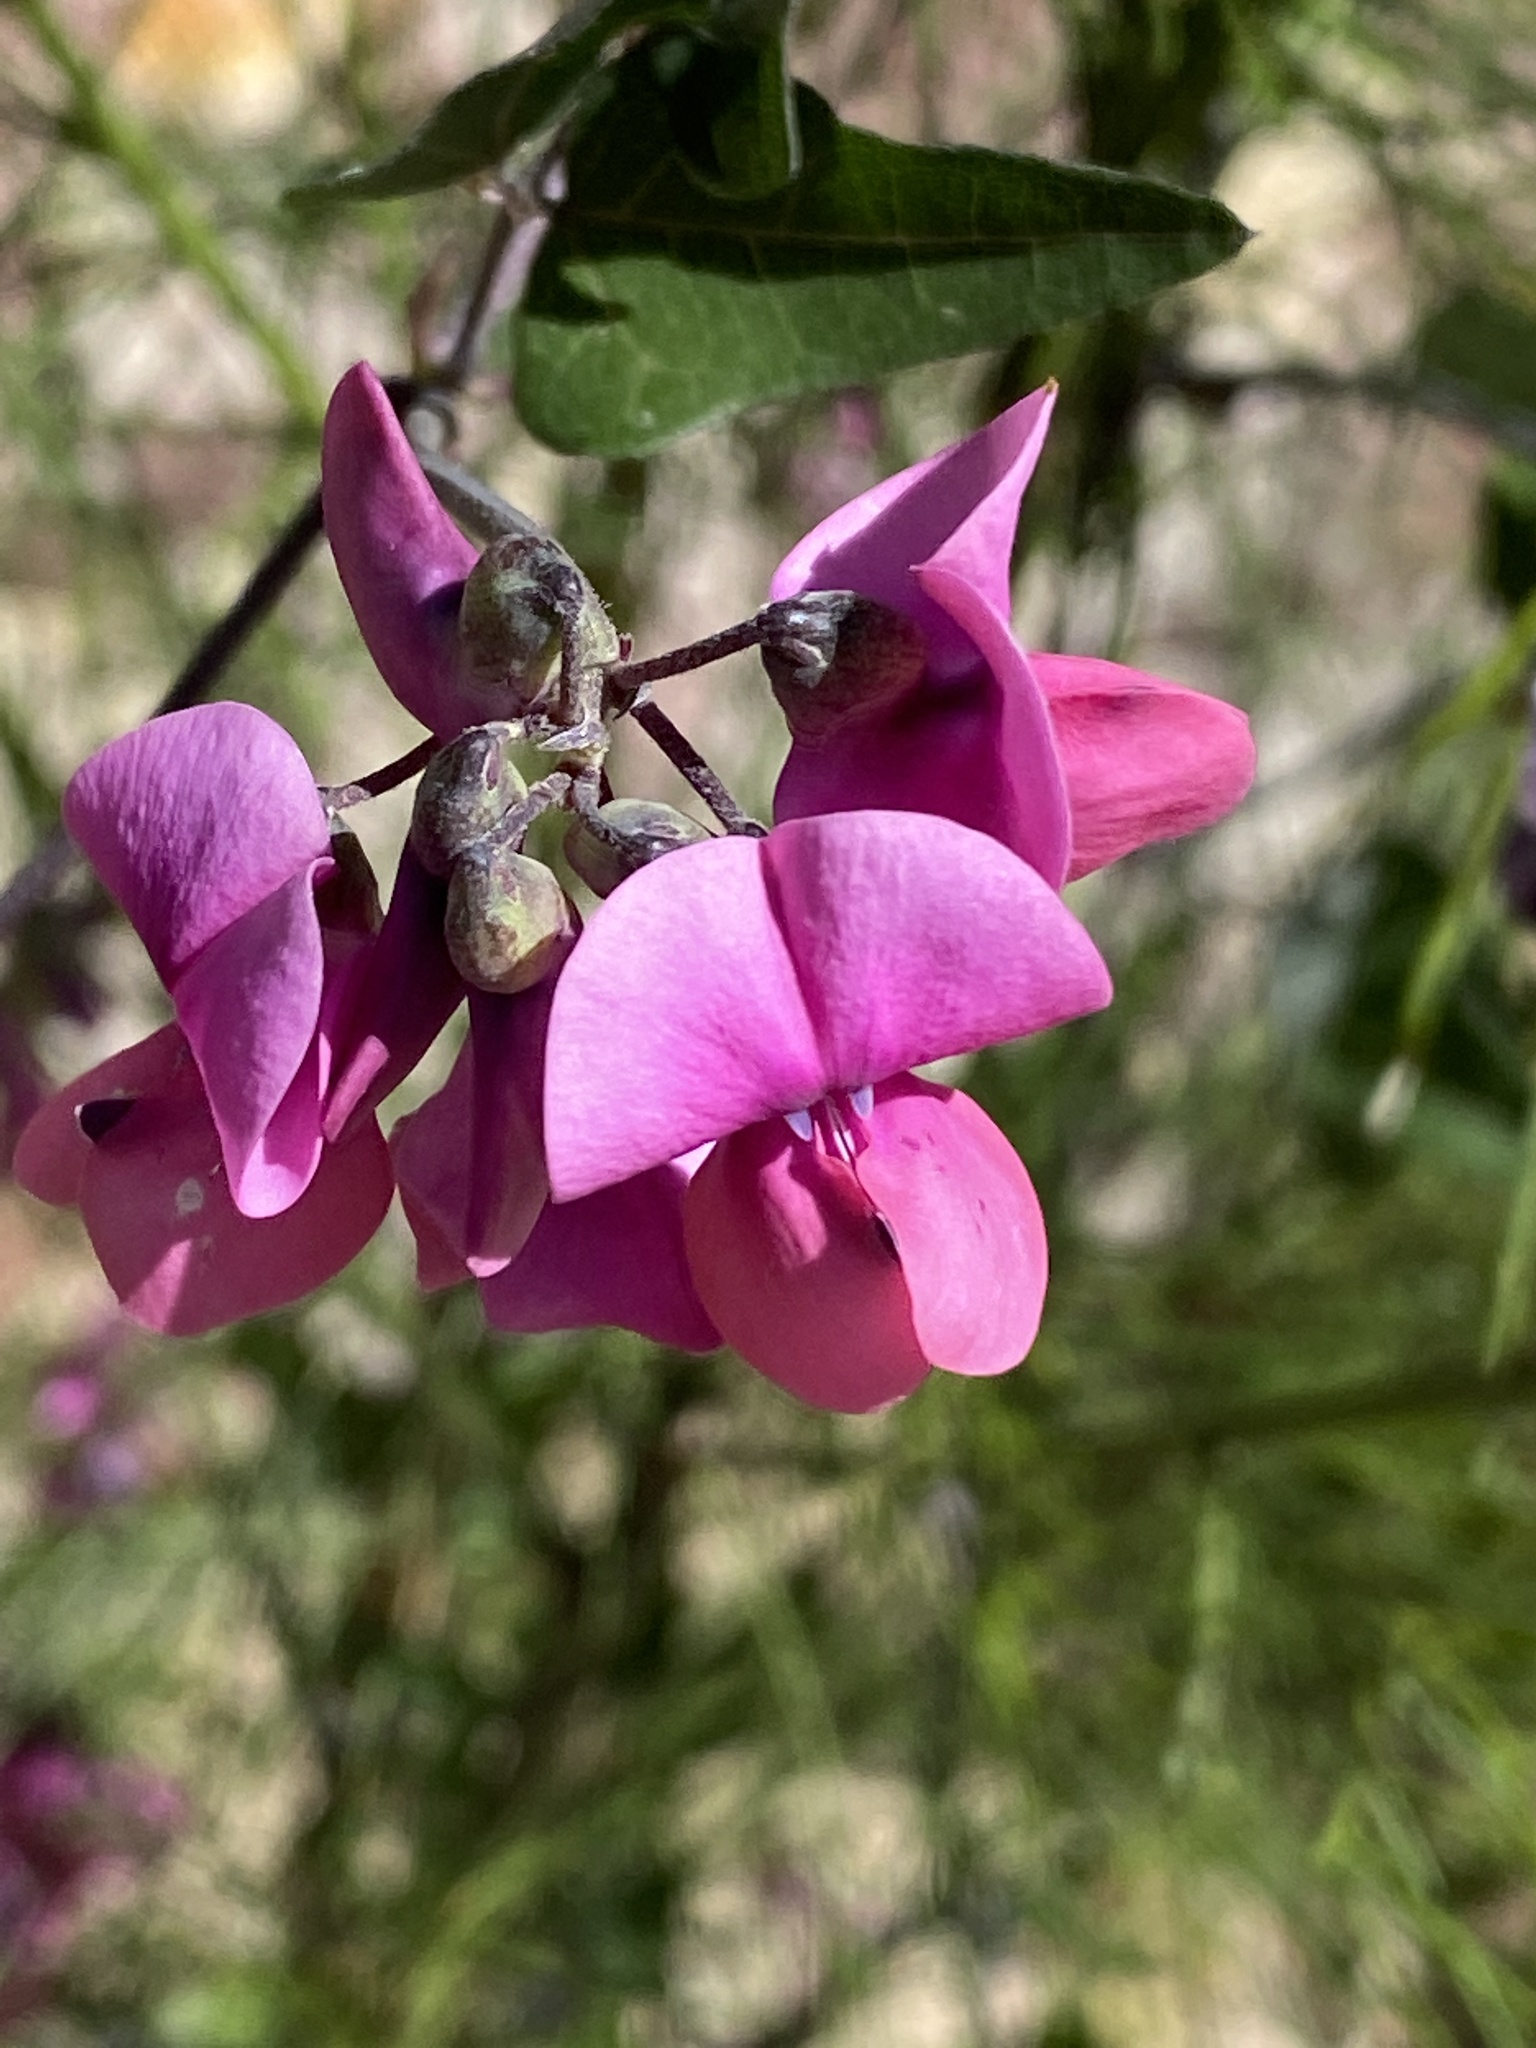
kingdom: Plantae
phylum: Tracheophyta
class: Magnoliopsida
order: Fabales
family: Fabaceae
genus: Dipogon
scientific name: Dipogon lignosus
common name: Okie bean
